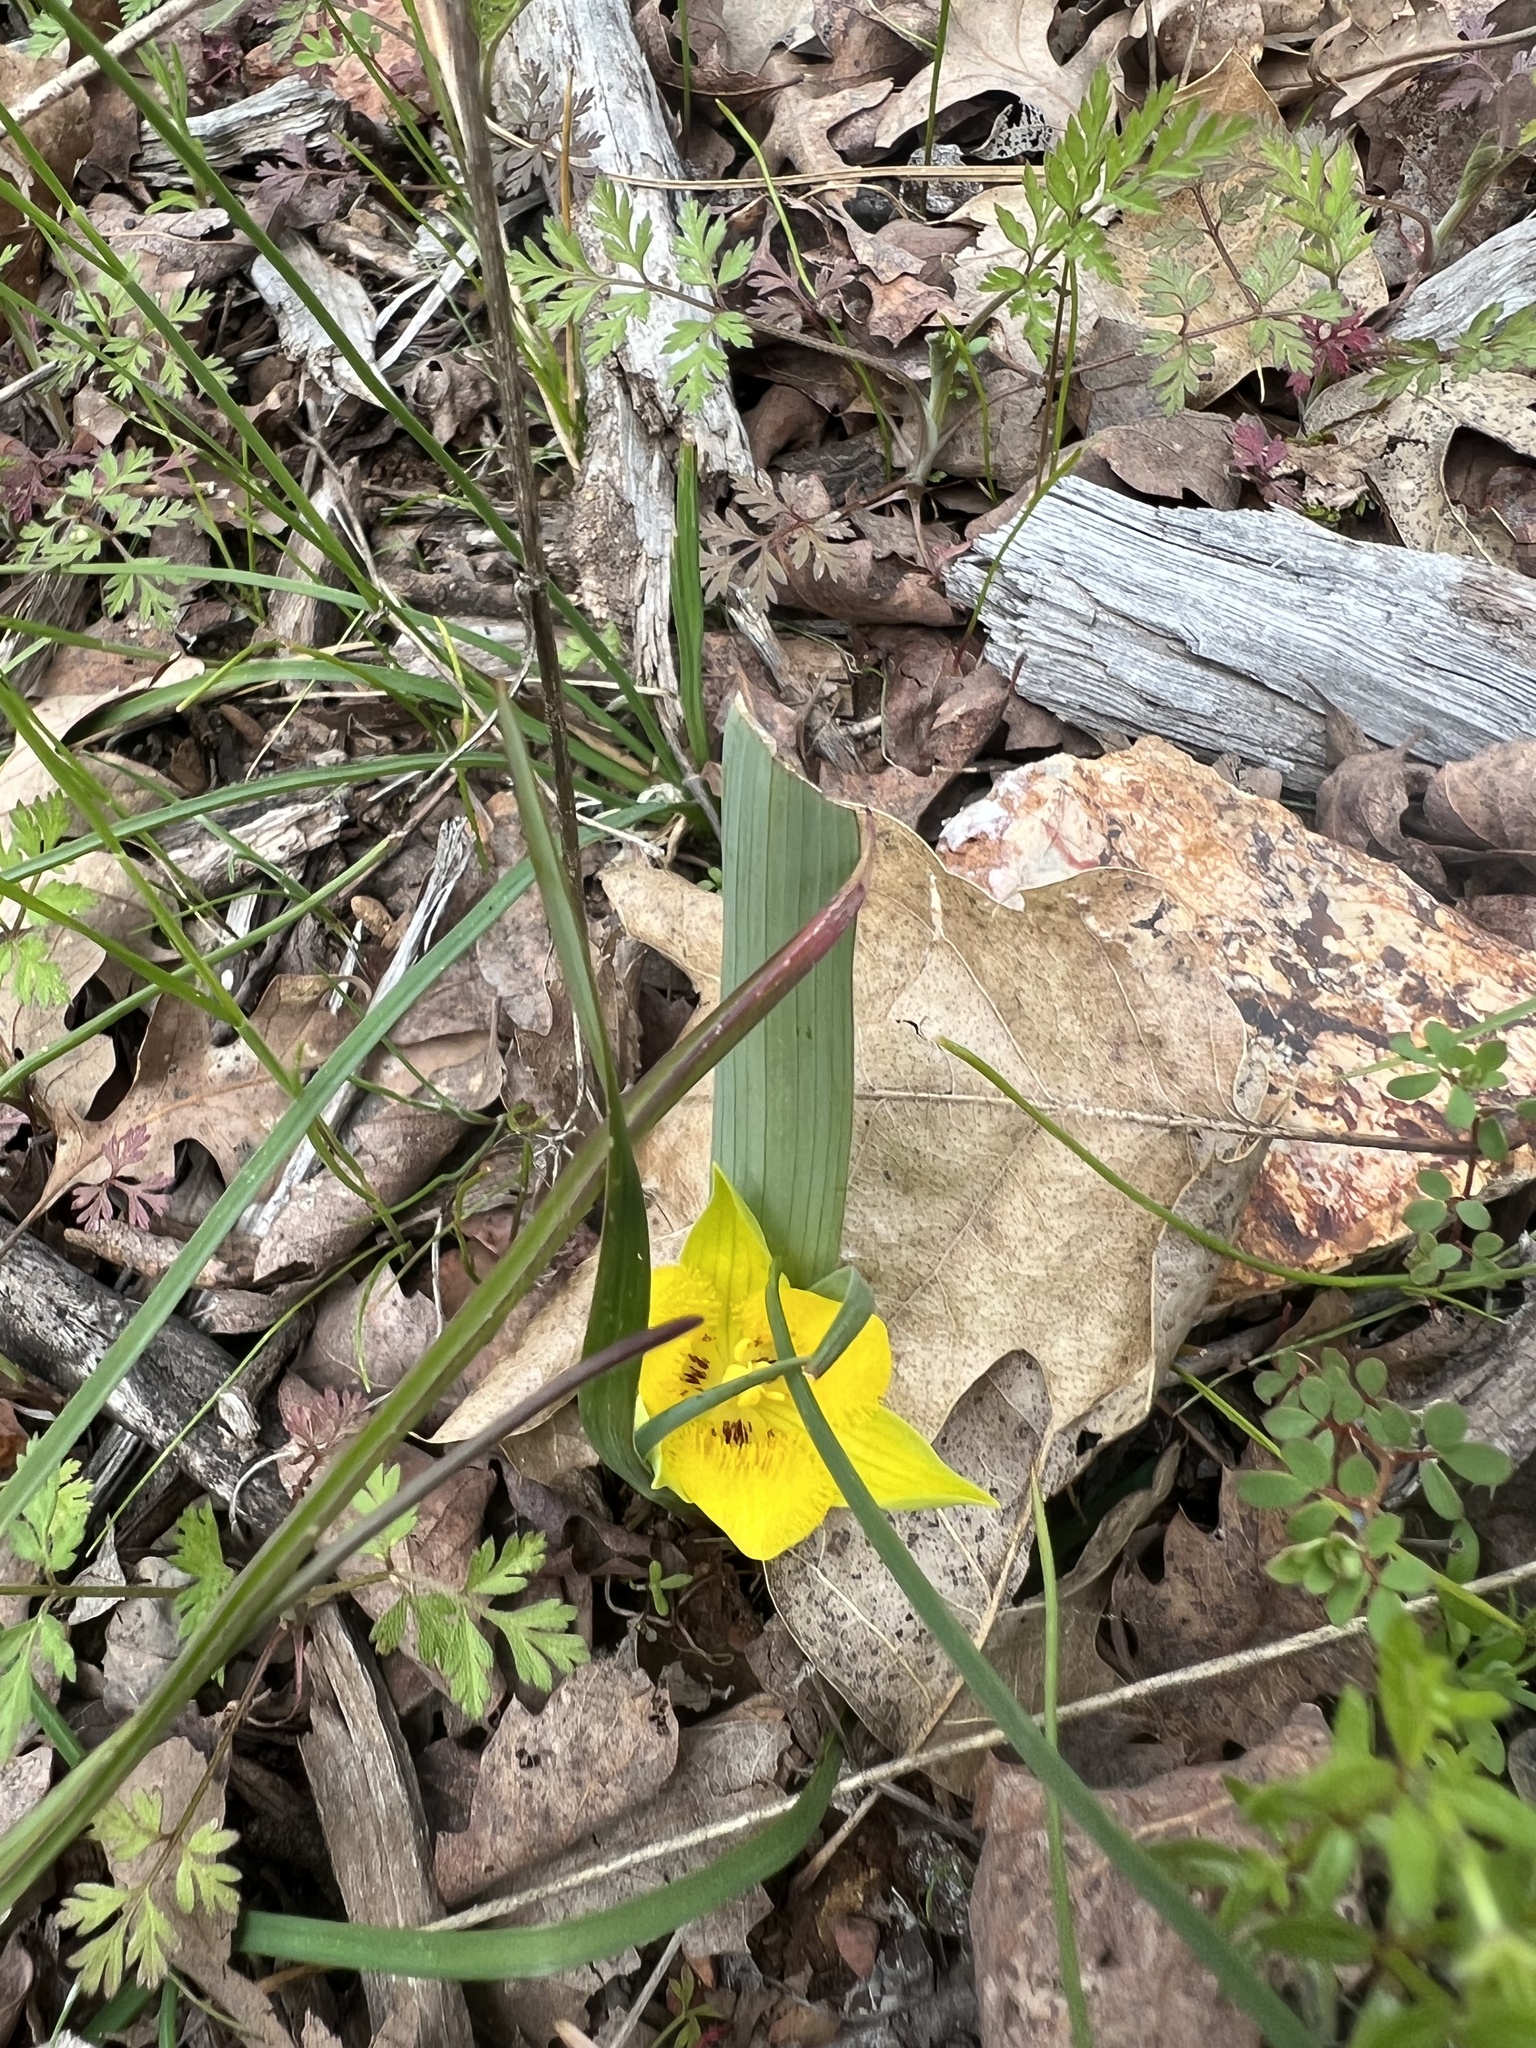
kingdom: Plantae
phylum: Tracheophyta
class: Liliopsida
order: Liliales
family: Liliaceae
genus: Calochortus
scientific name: Calochortus monophyllus
